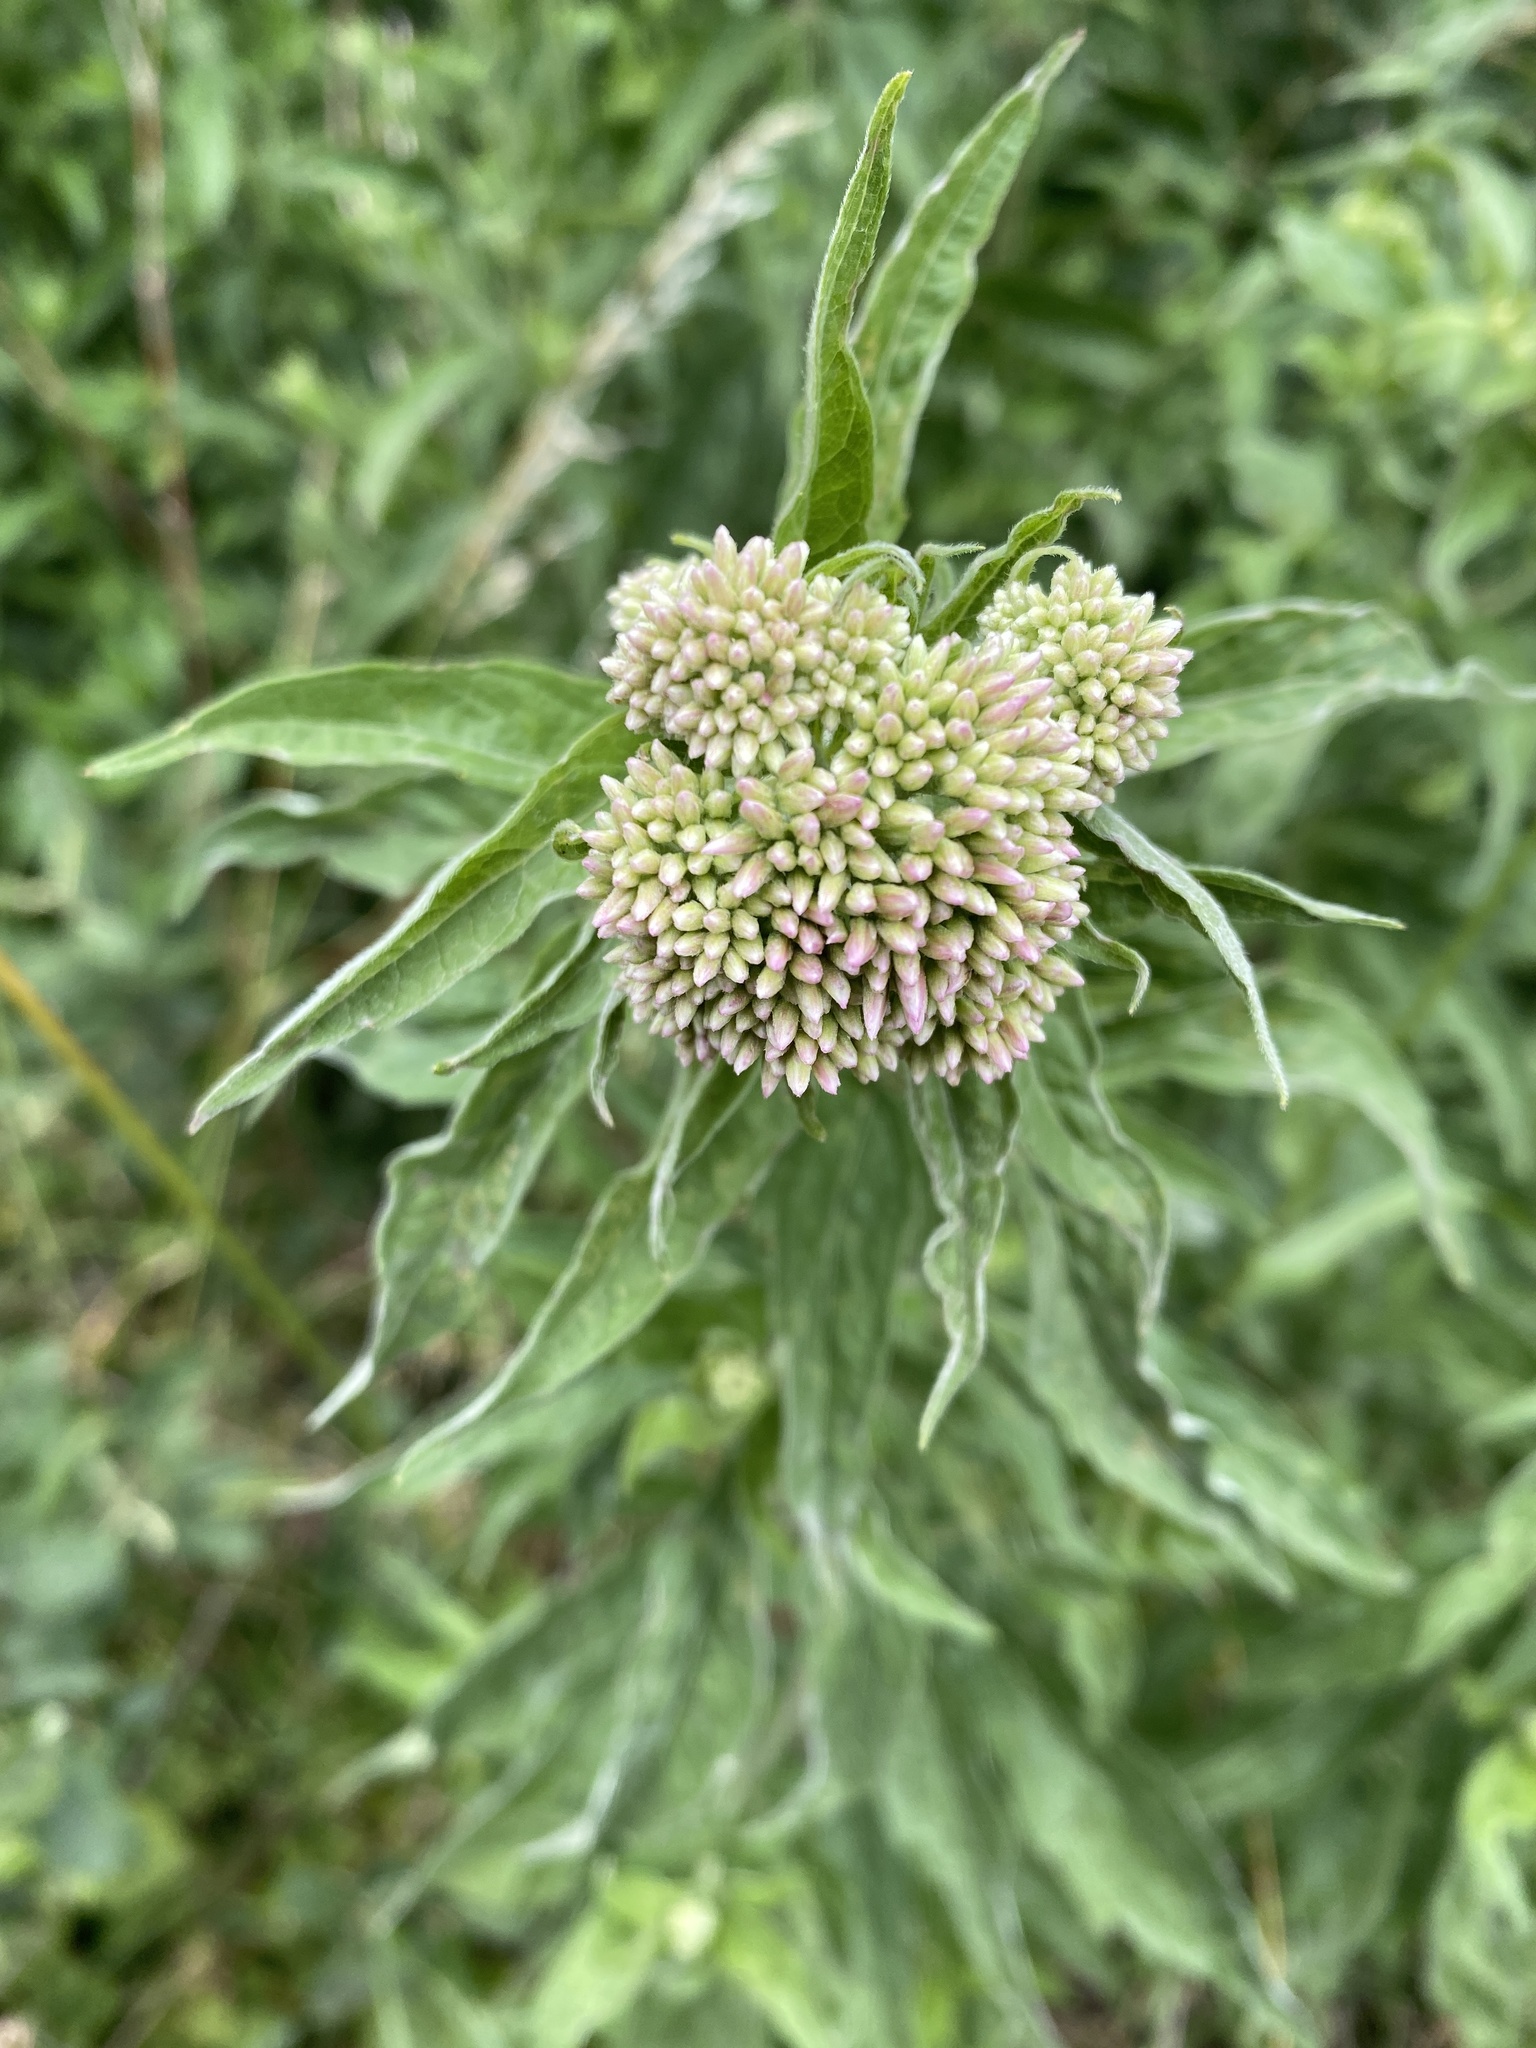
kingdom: Plantae
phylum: Tracheophyta
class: Magnoliopsida
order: Asterales
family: Asteraceae
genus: Eupatorium
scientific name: Eupatorium cannabinum
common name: Hemp-agrimony
